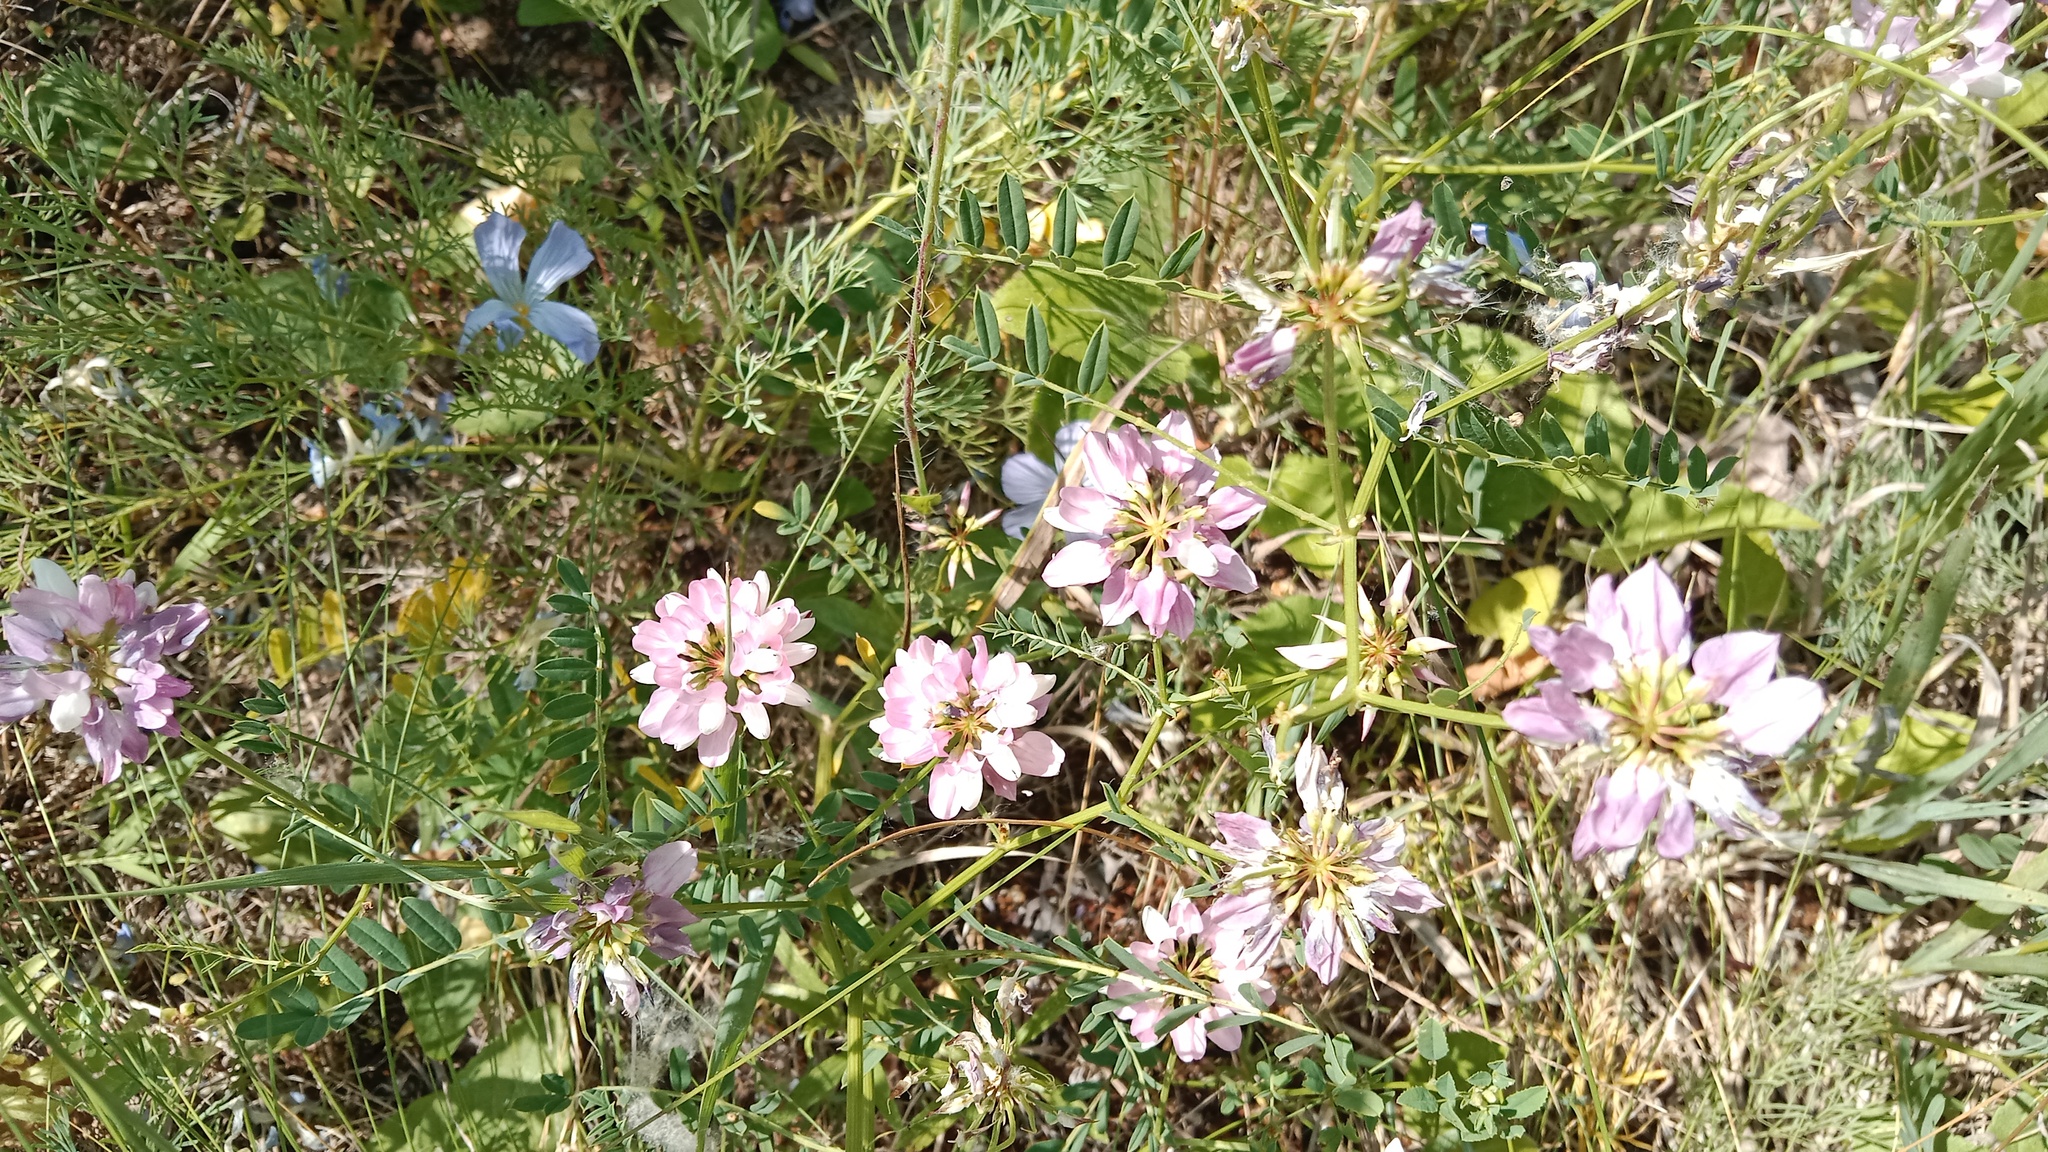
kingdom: Plantae
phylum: Tracheophyta
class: Magnoliopsida
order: Fabales
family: Fabaceae
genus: Coronilla
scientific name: Coronilla varia
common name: Crownvetch
